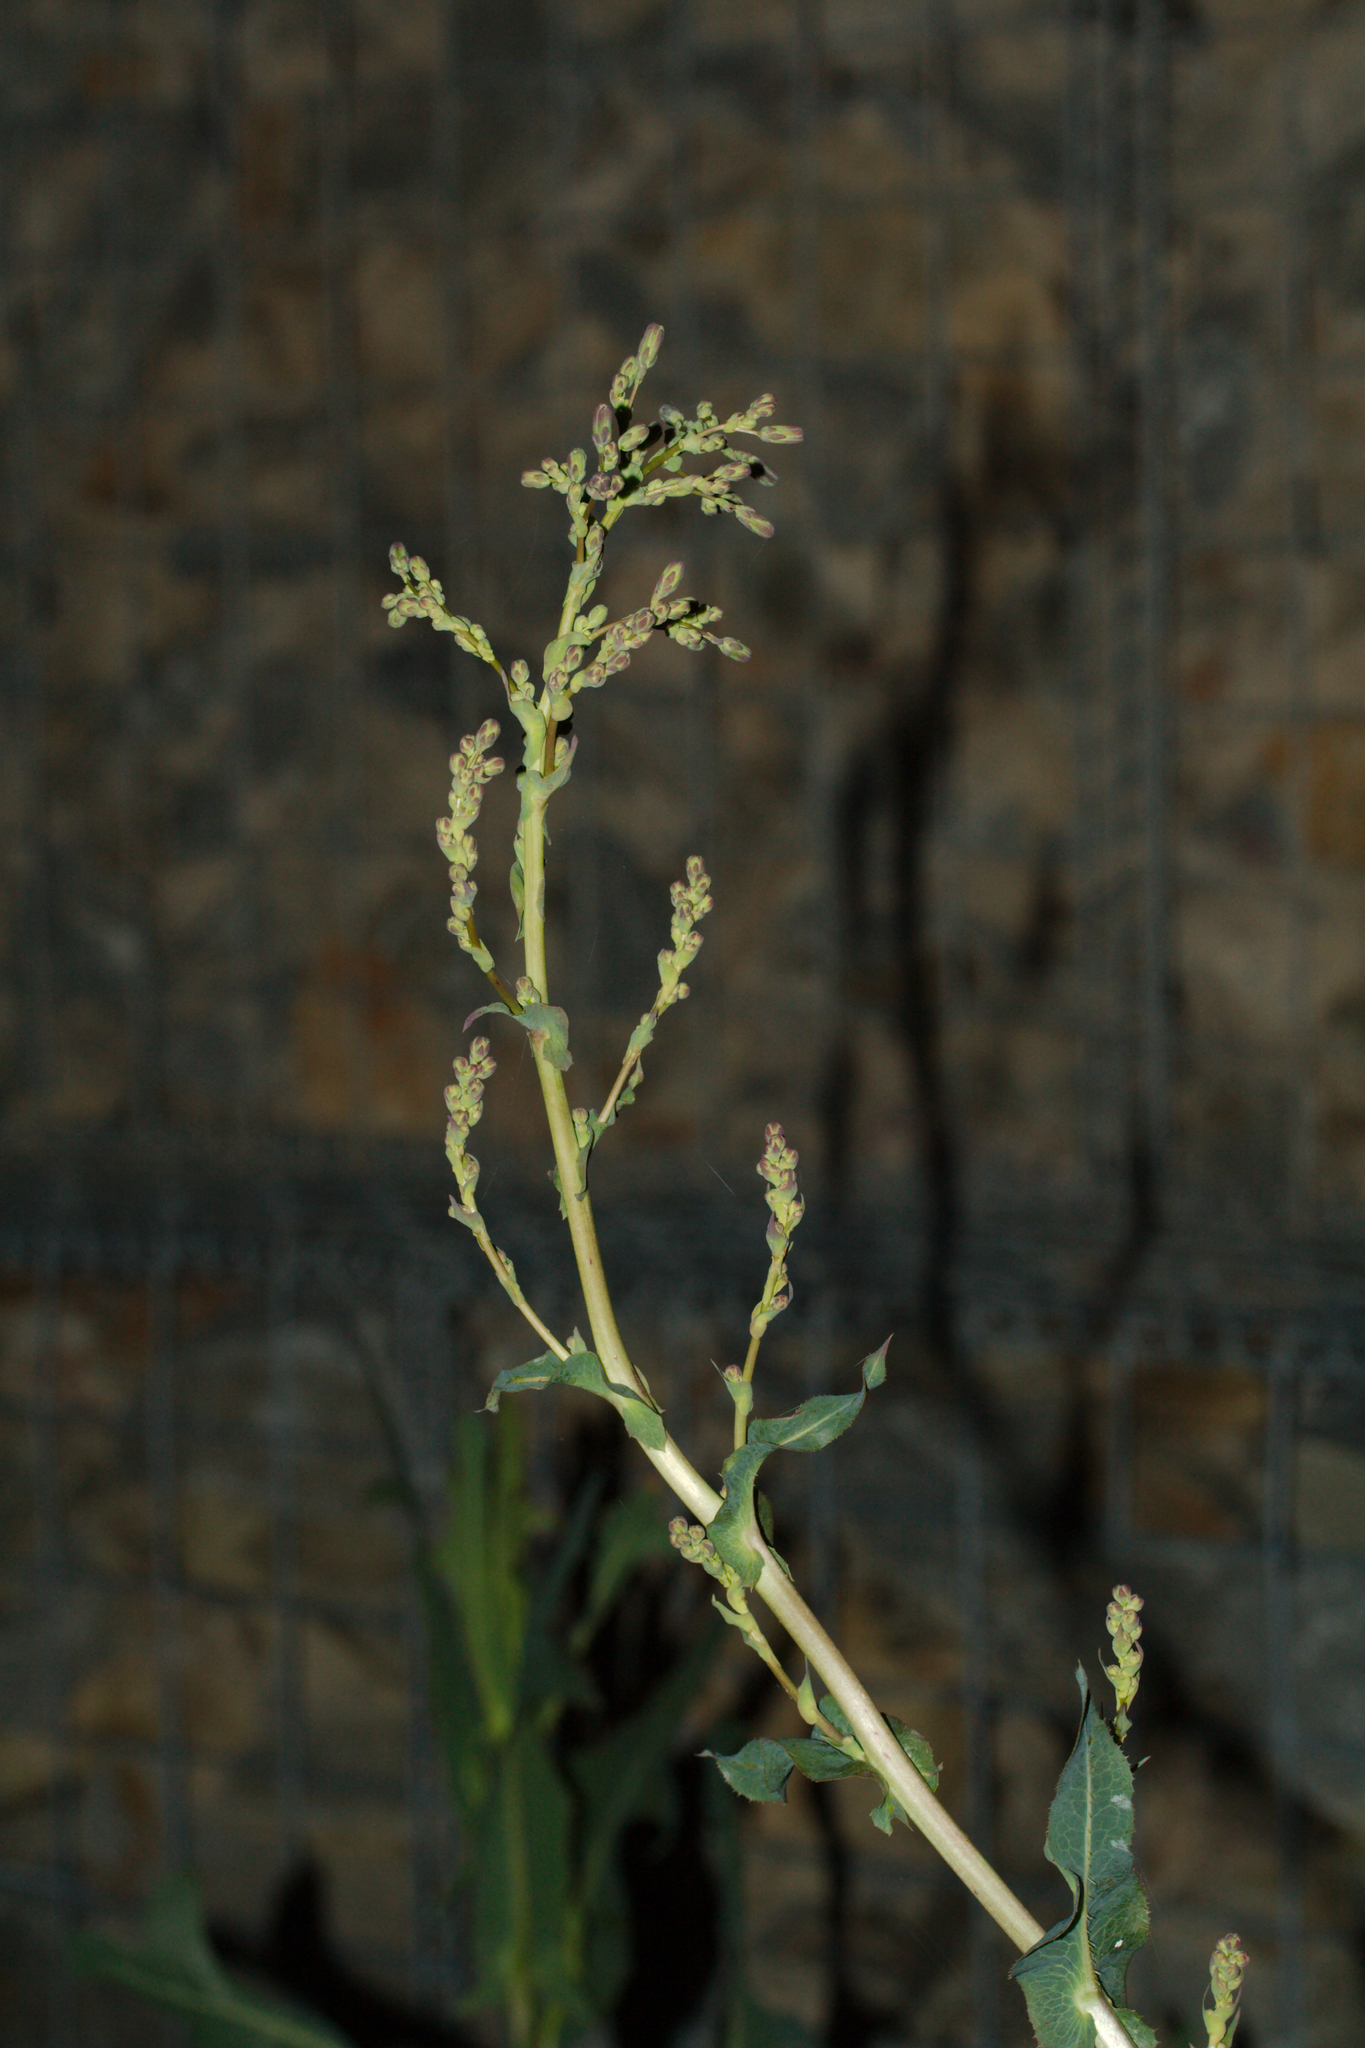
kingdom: Plantae
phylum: Tracheophyta
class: Magnoliopsida
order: Asterales
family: Asteraceae
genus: Lactuca
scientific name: Lactuca serriola
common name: Prickly lettuce
